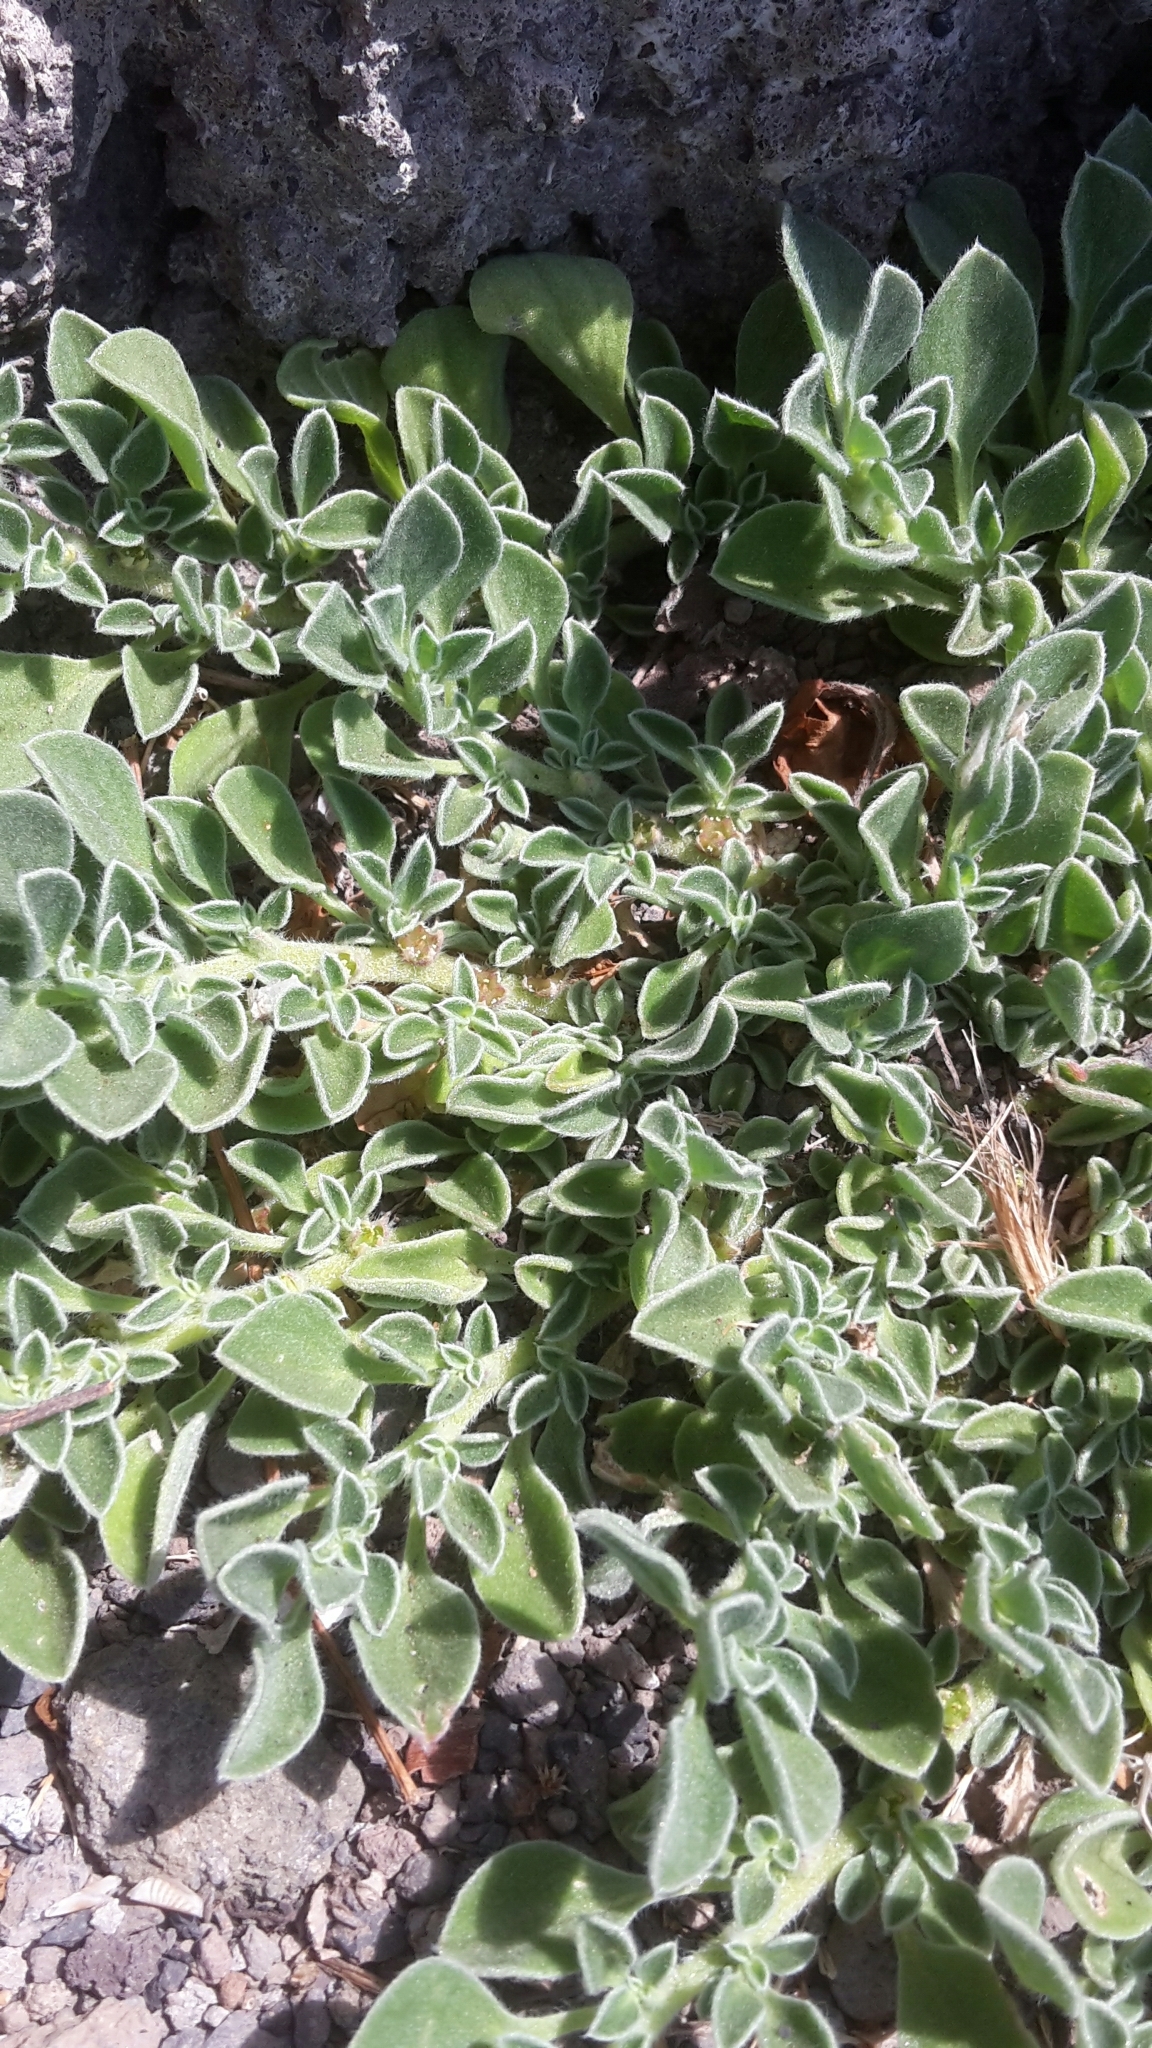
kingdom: Plantae
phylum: Tracheophyta
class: Magnoliopsida
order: Caryophyllales
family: Aizoaceae
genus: Aizoon
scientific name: Aizoon canariense
